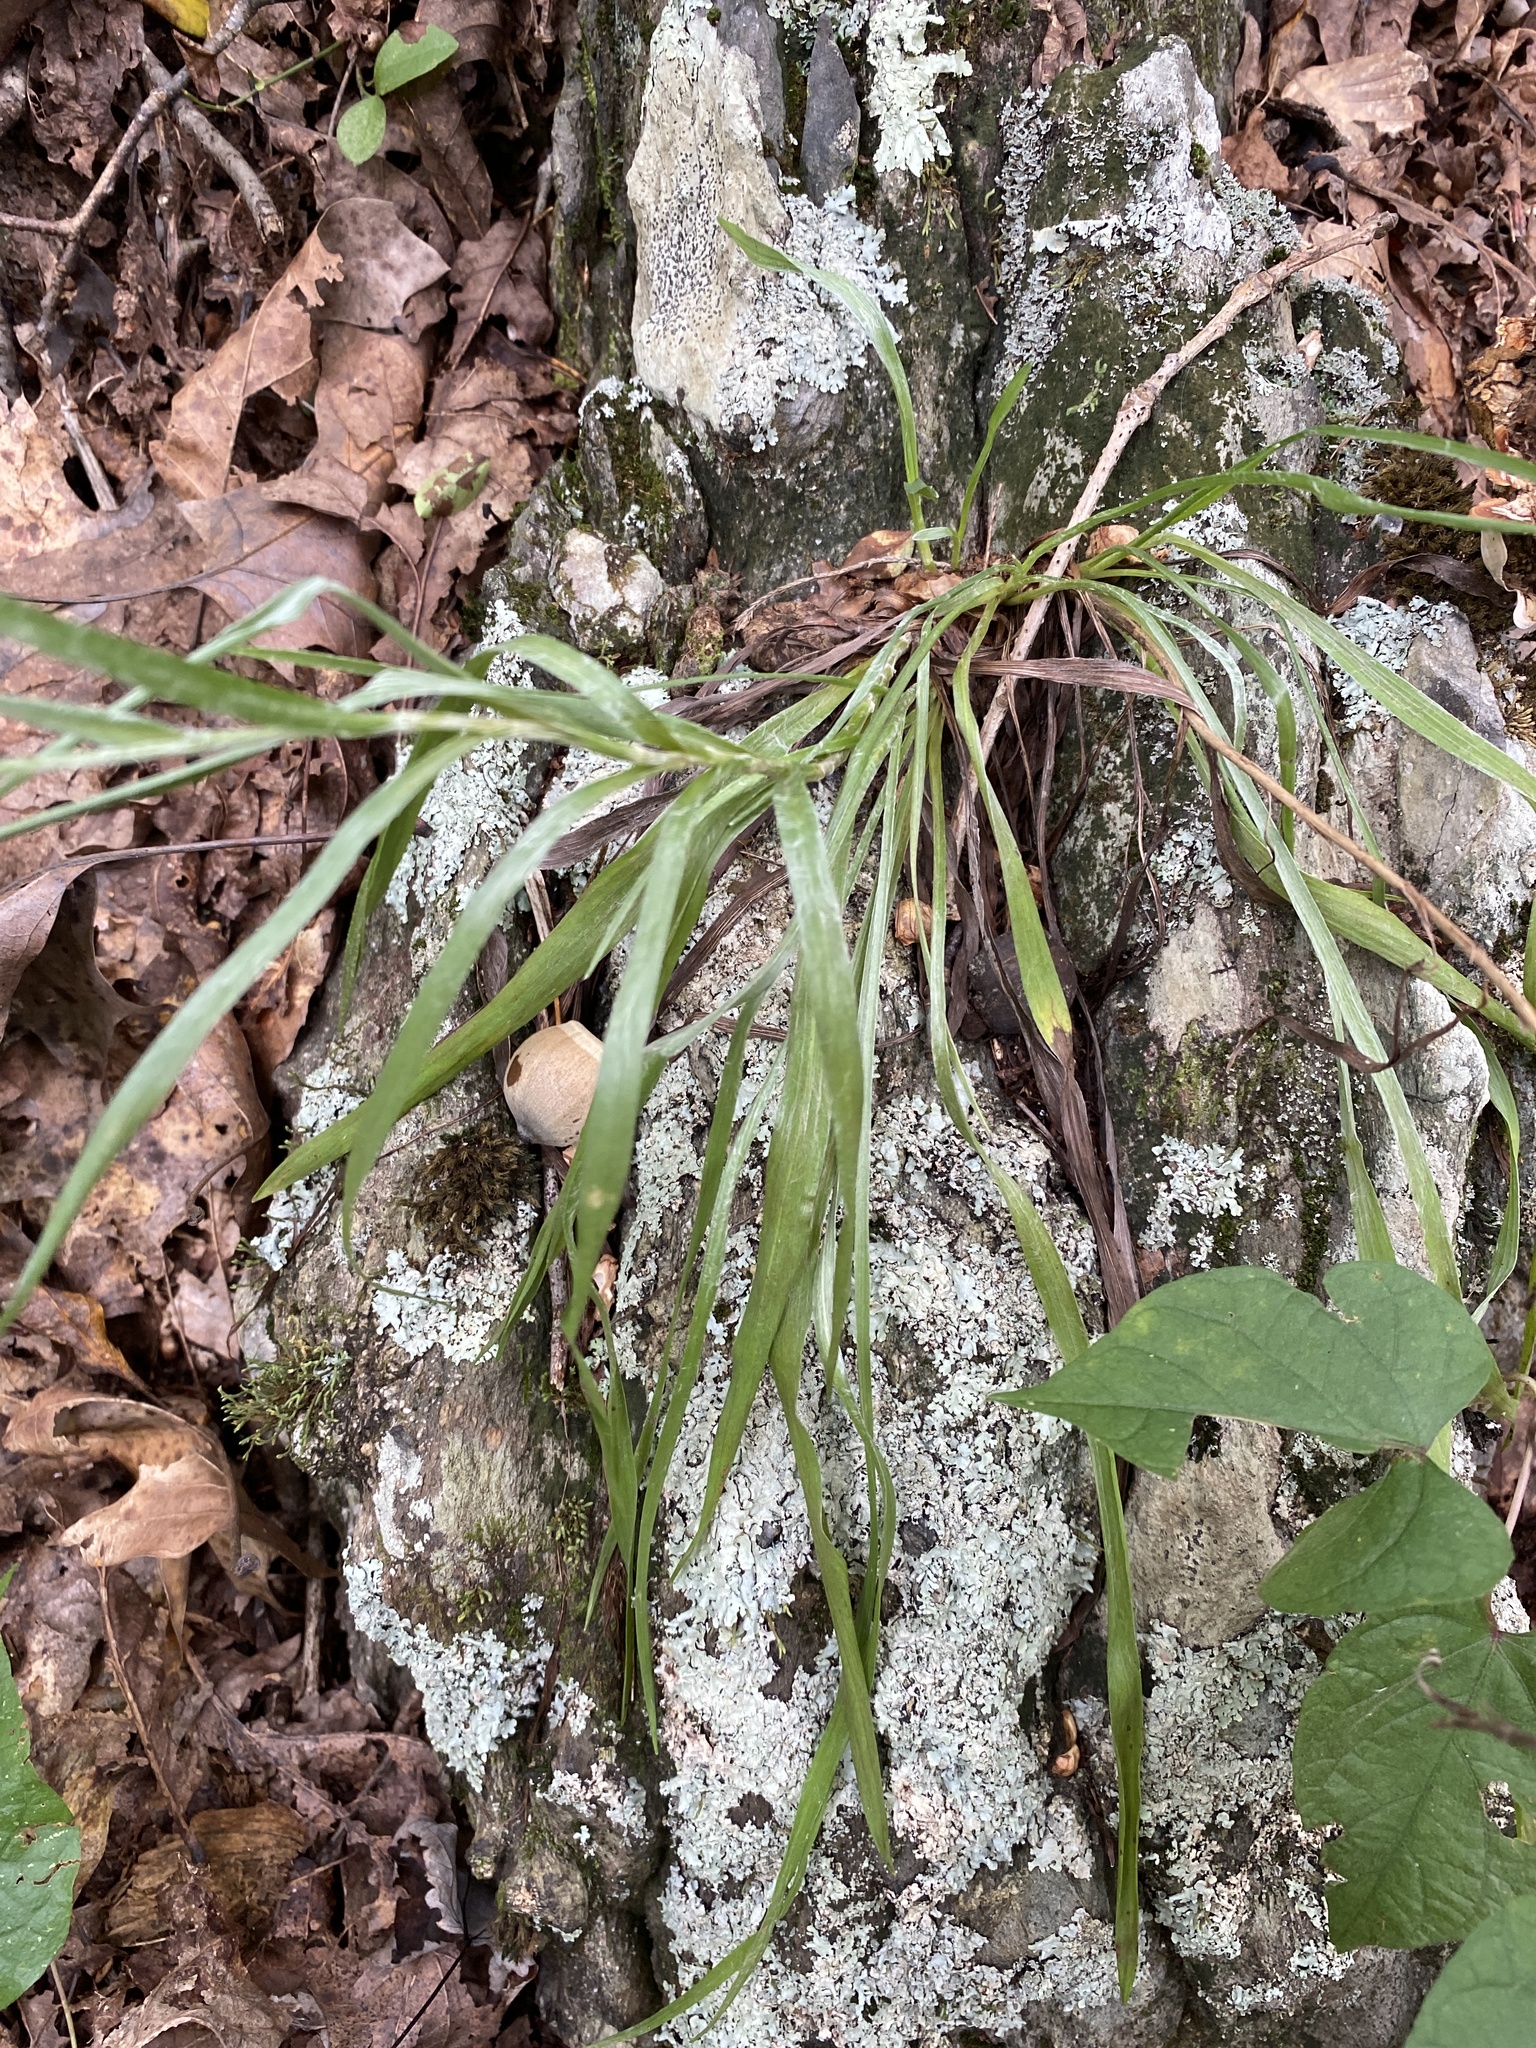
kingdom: Plantae
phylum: Tracheophyta
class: Magnoliopsida
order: Asterales
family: Asteraceae
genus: Pityopsis
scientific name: Pityopsis graminifolia
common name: Grass-leaf golden-aster
